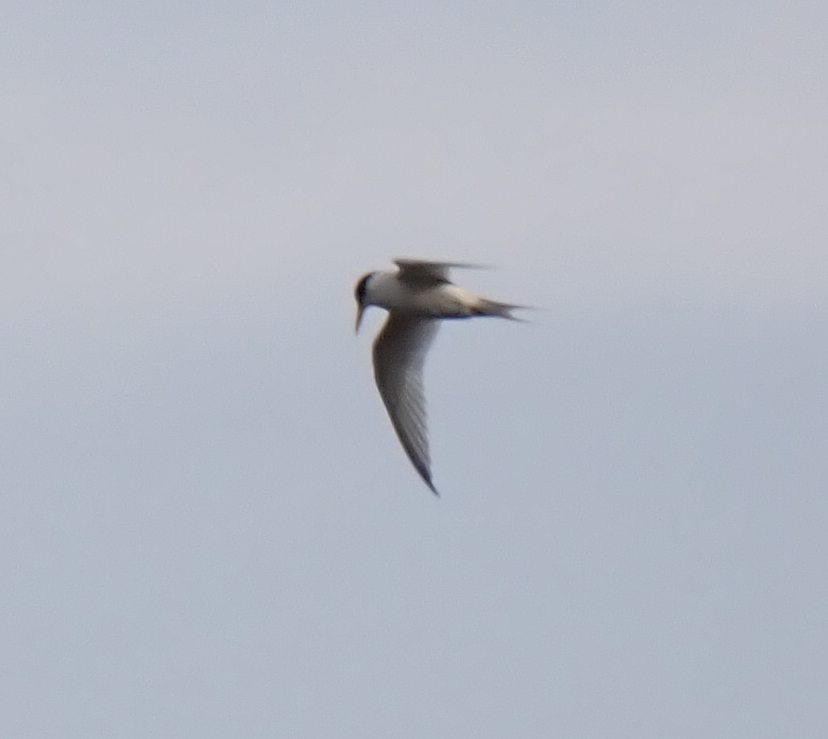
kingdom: Animalia
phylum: Chordata
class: Aves
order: Charadriiformes
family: Laridae
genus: Sterna
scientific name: Sterna forsteri
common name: Forster's tern
